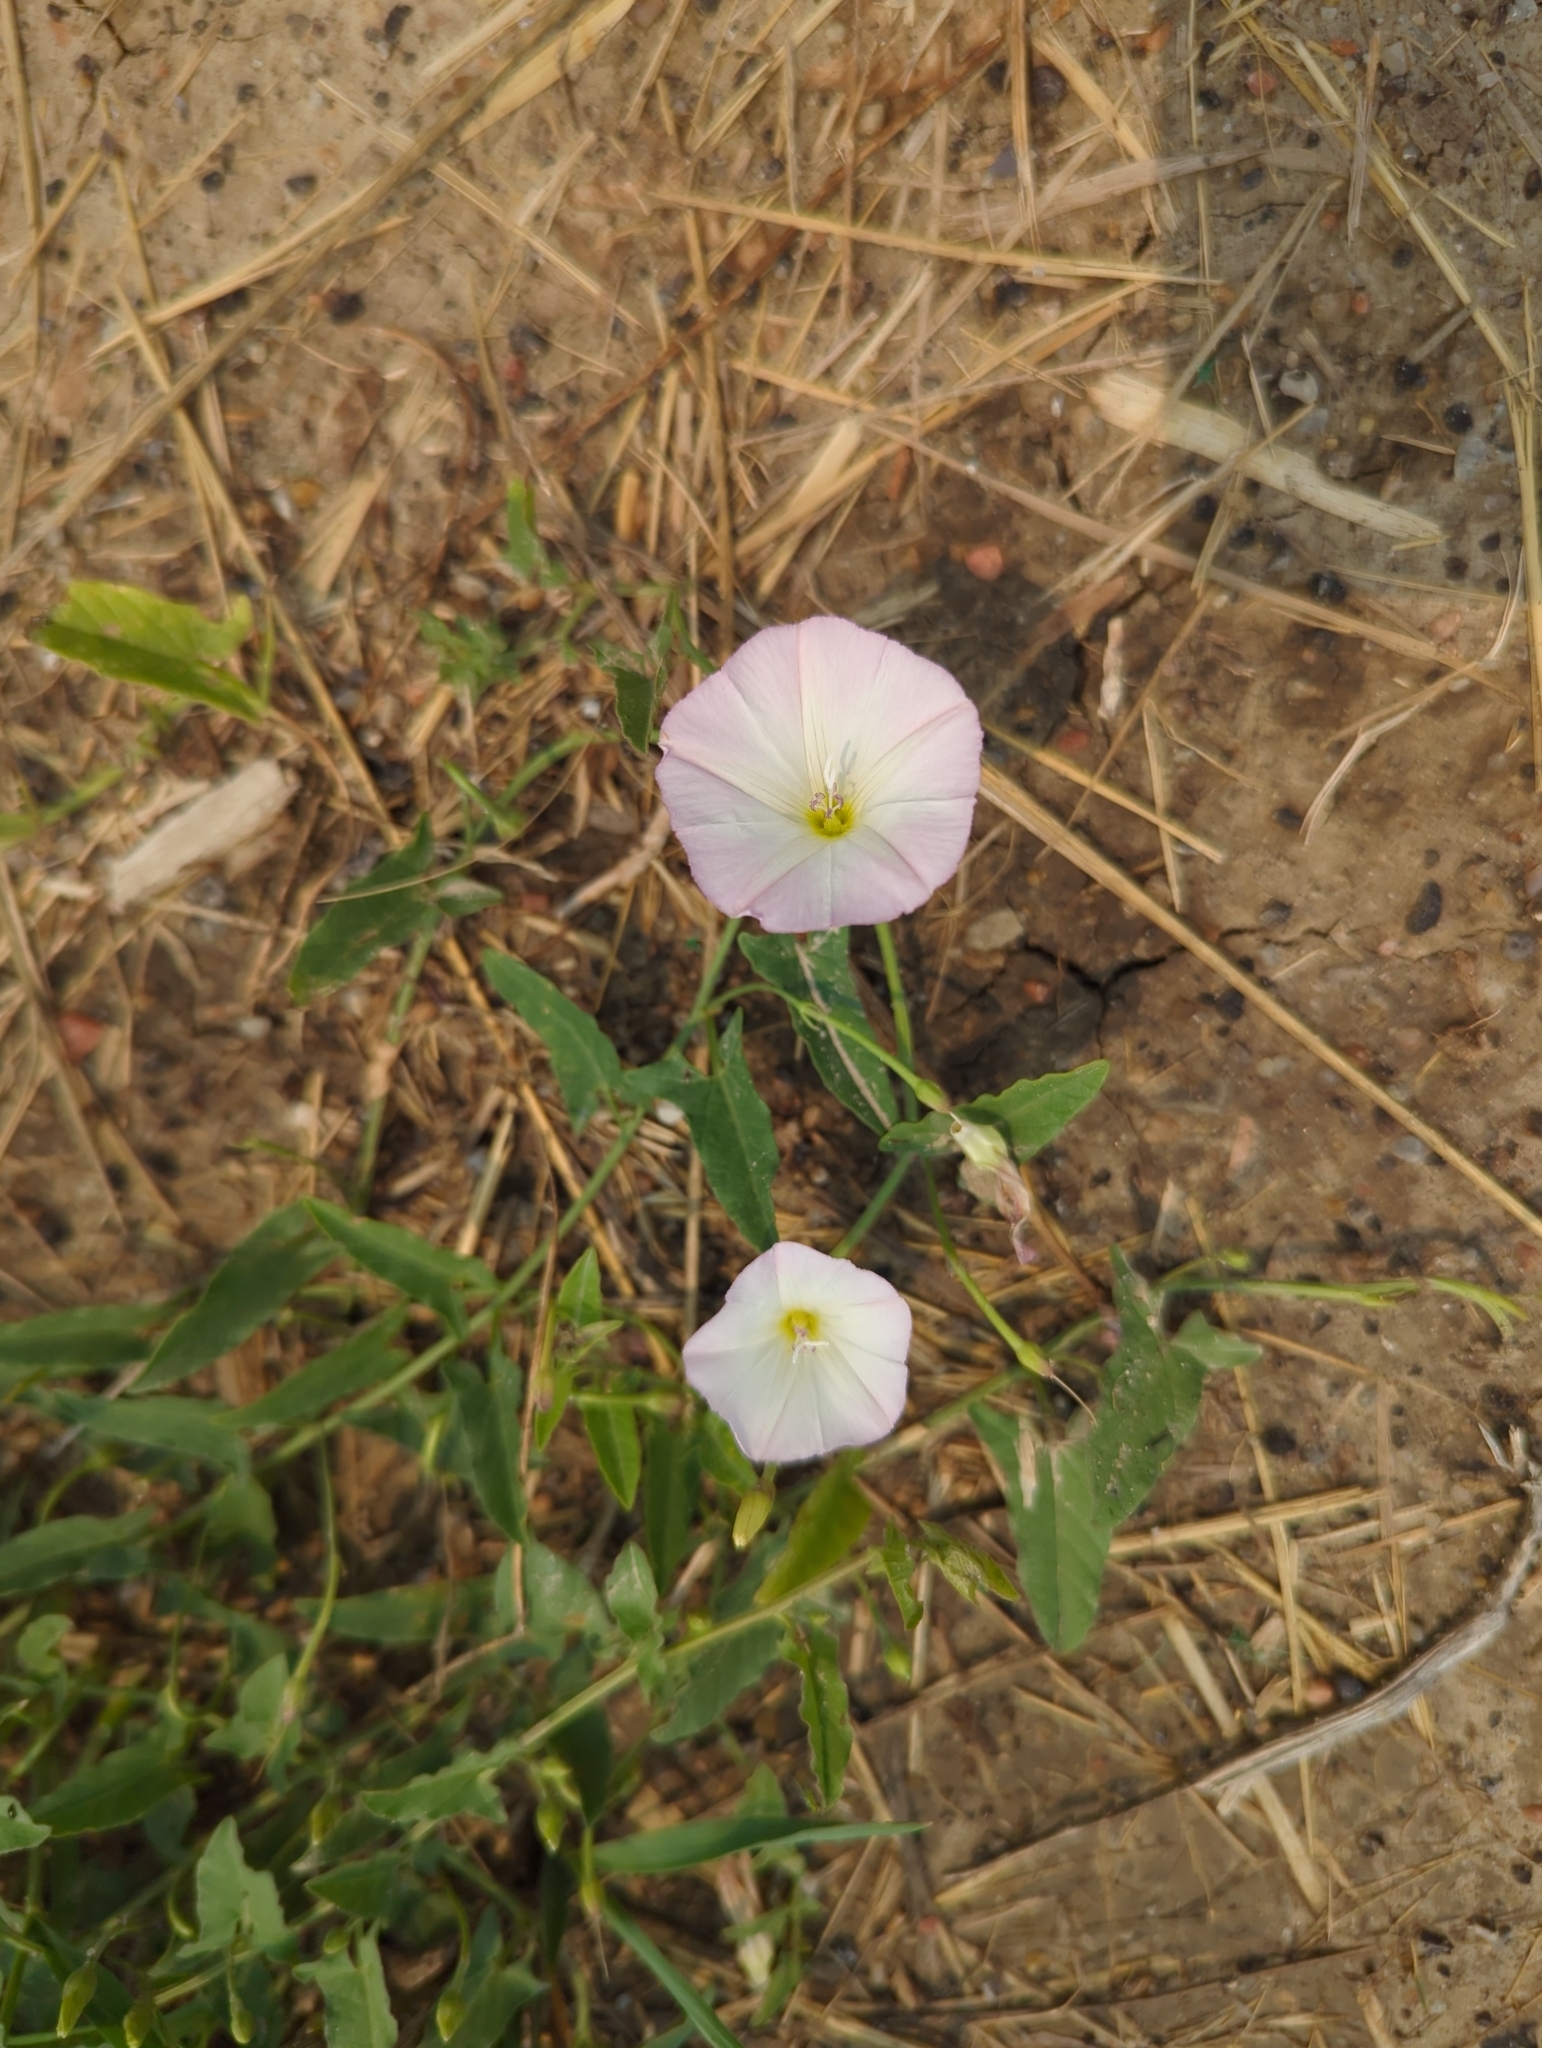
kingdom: Plantae
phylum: Tracheophyta
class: Magnoliopsida
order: Solanales
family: Convolvulaceae
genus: Convolvulus
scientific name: Convolvulus arvensis
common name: Field bindweed
